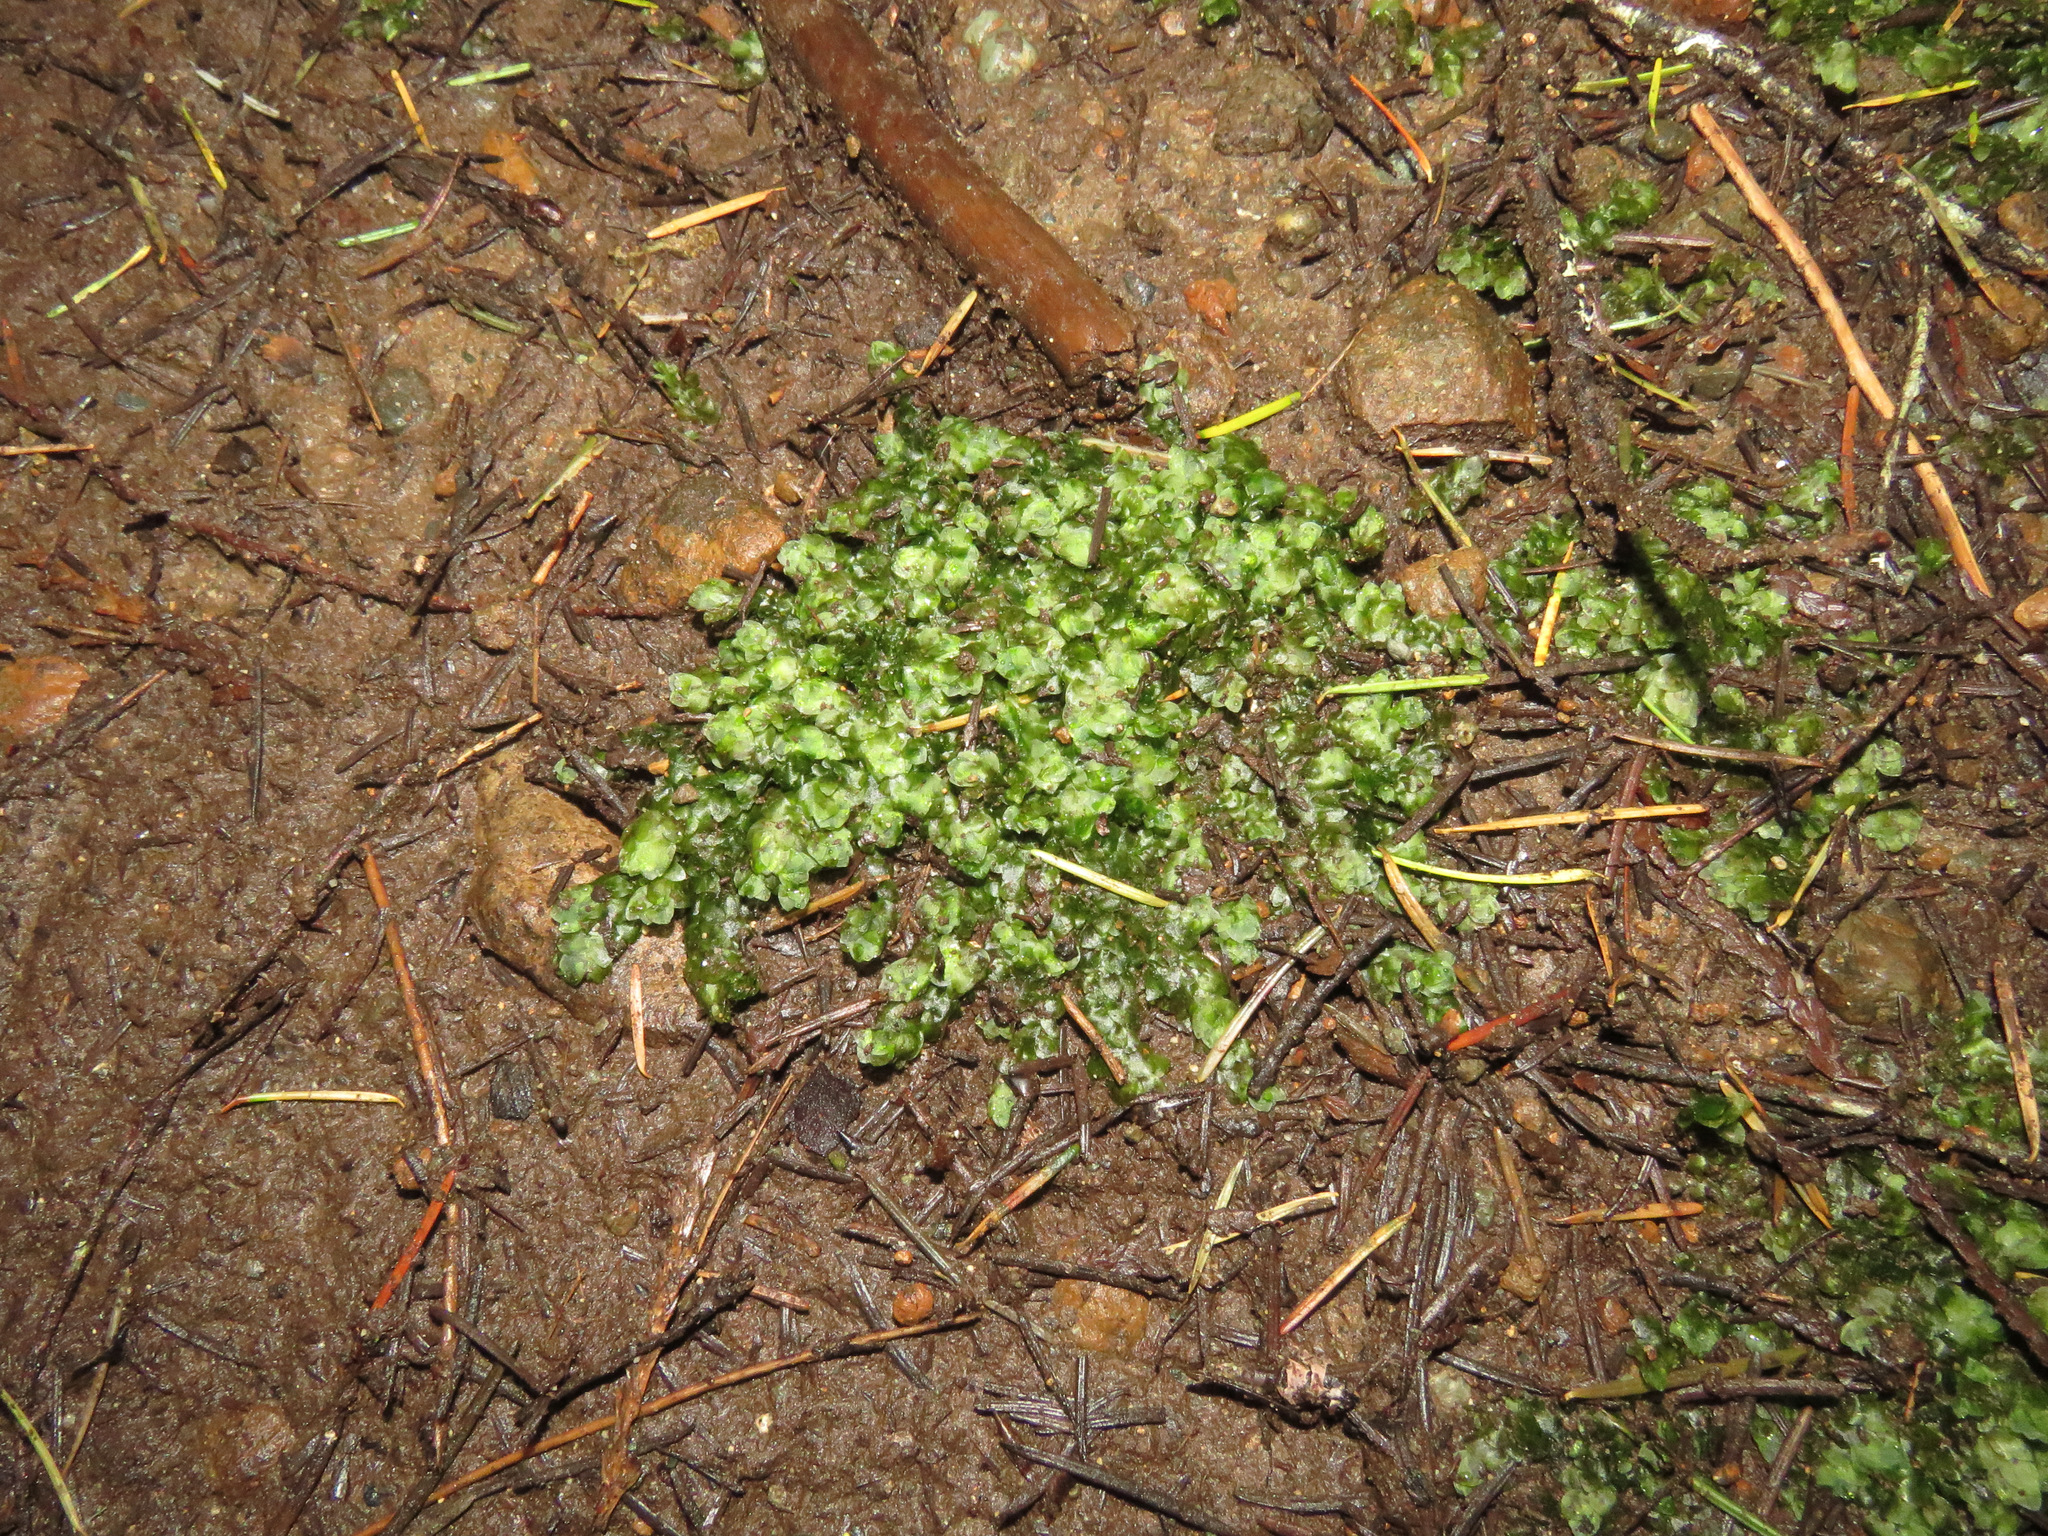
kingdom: Plantae
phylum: Bryophyta
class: Bryopsida
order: Hookeriales
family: Hookeriaceae
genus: Hookeria
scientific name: Hookeria lucens
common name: Shining hookeria
